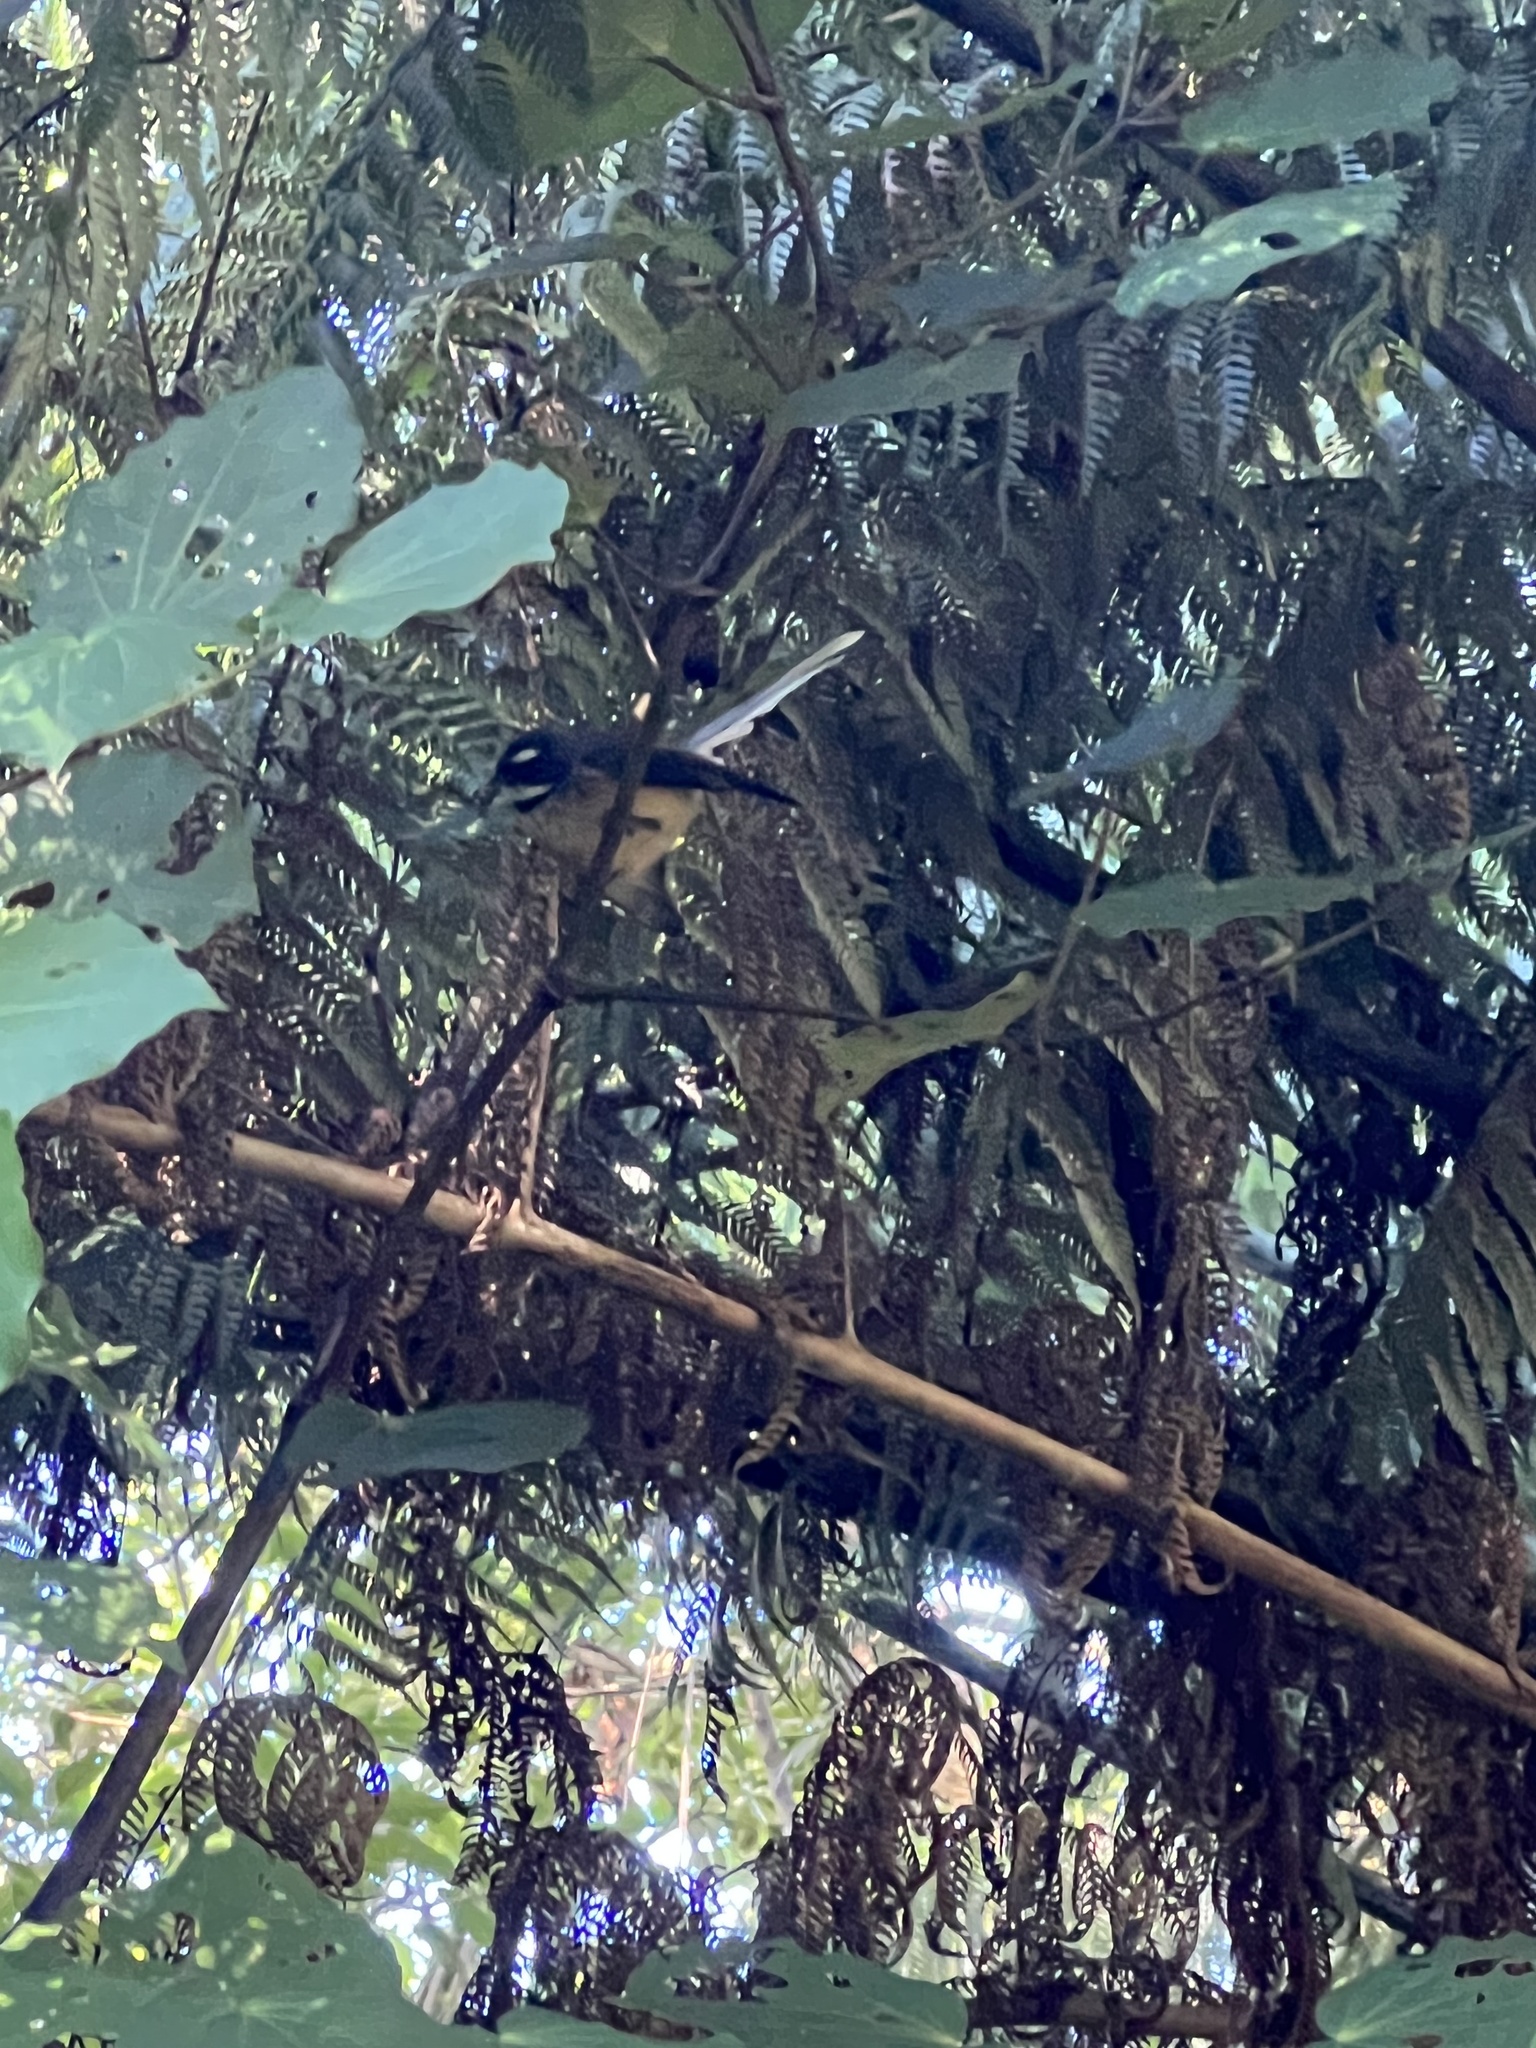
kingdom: Animalia
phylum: Chordata
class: Aves
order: Passeriformes
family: Rhipiduridae
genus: Rhipidura
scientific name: Rhipidura fuliginosa
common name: New zealand fantail
